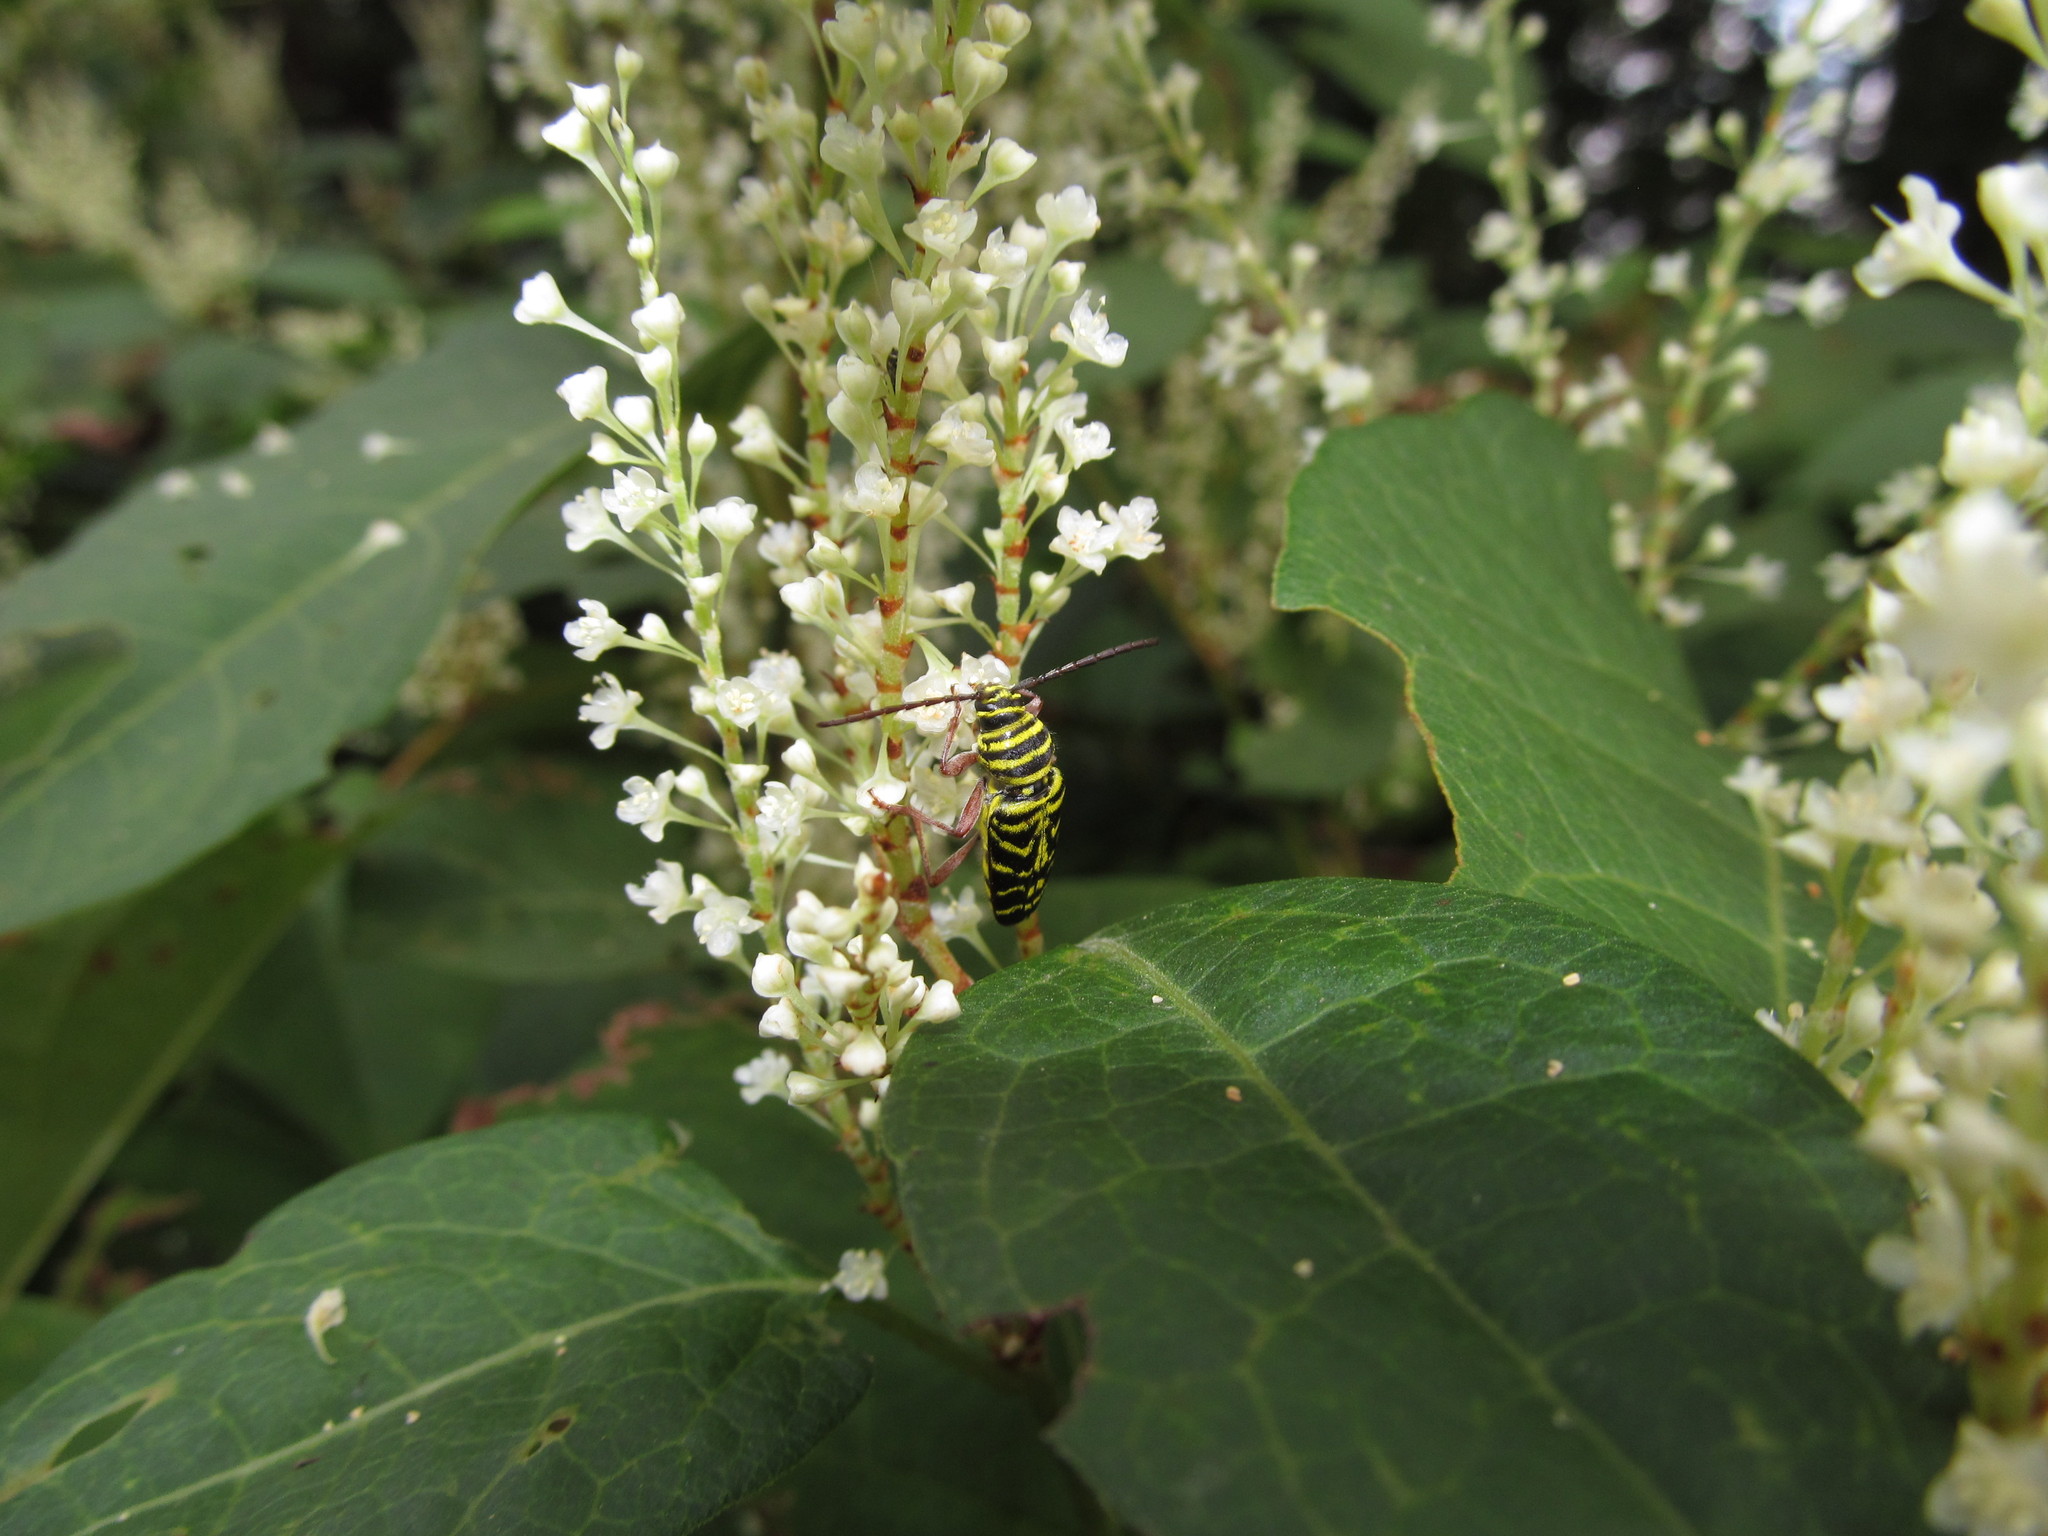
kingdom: Animalia
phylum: Arthropoda
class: Insecta
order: Coleoptera
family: Cerambycidae
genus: Megacyllene
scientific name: Megacyllene robiniae
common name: Locust borer
